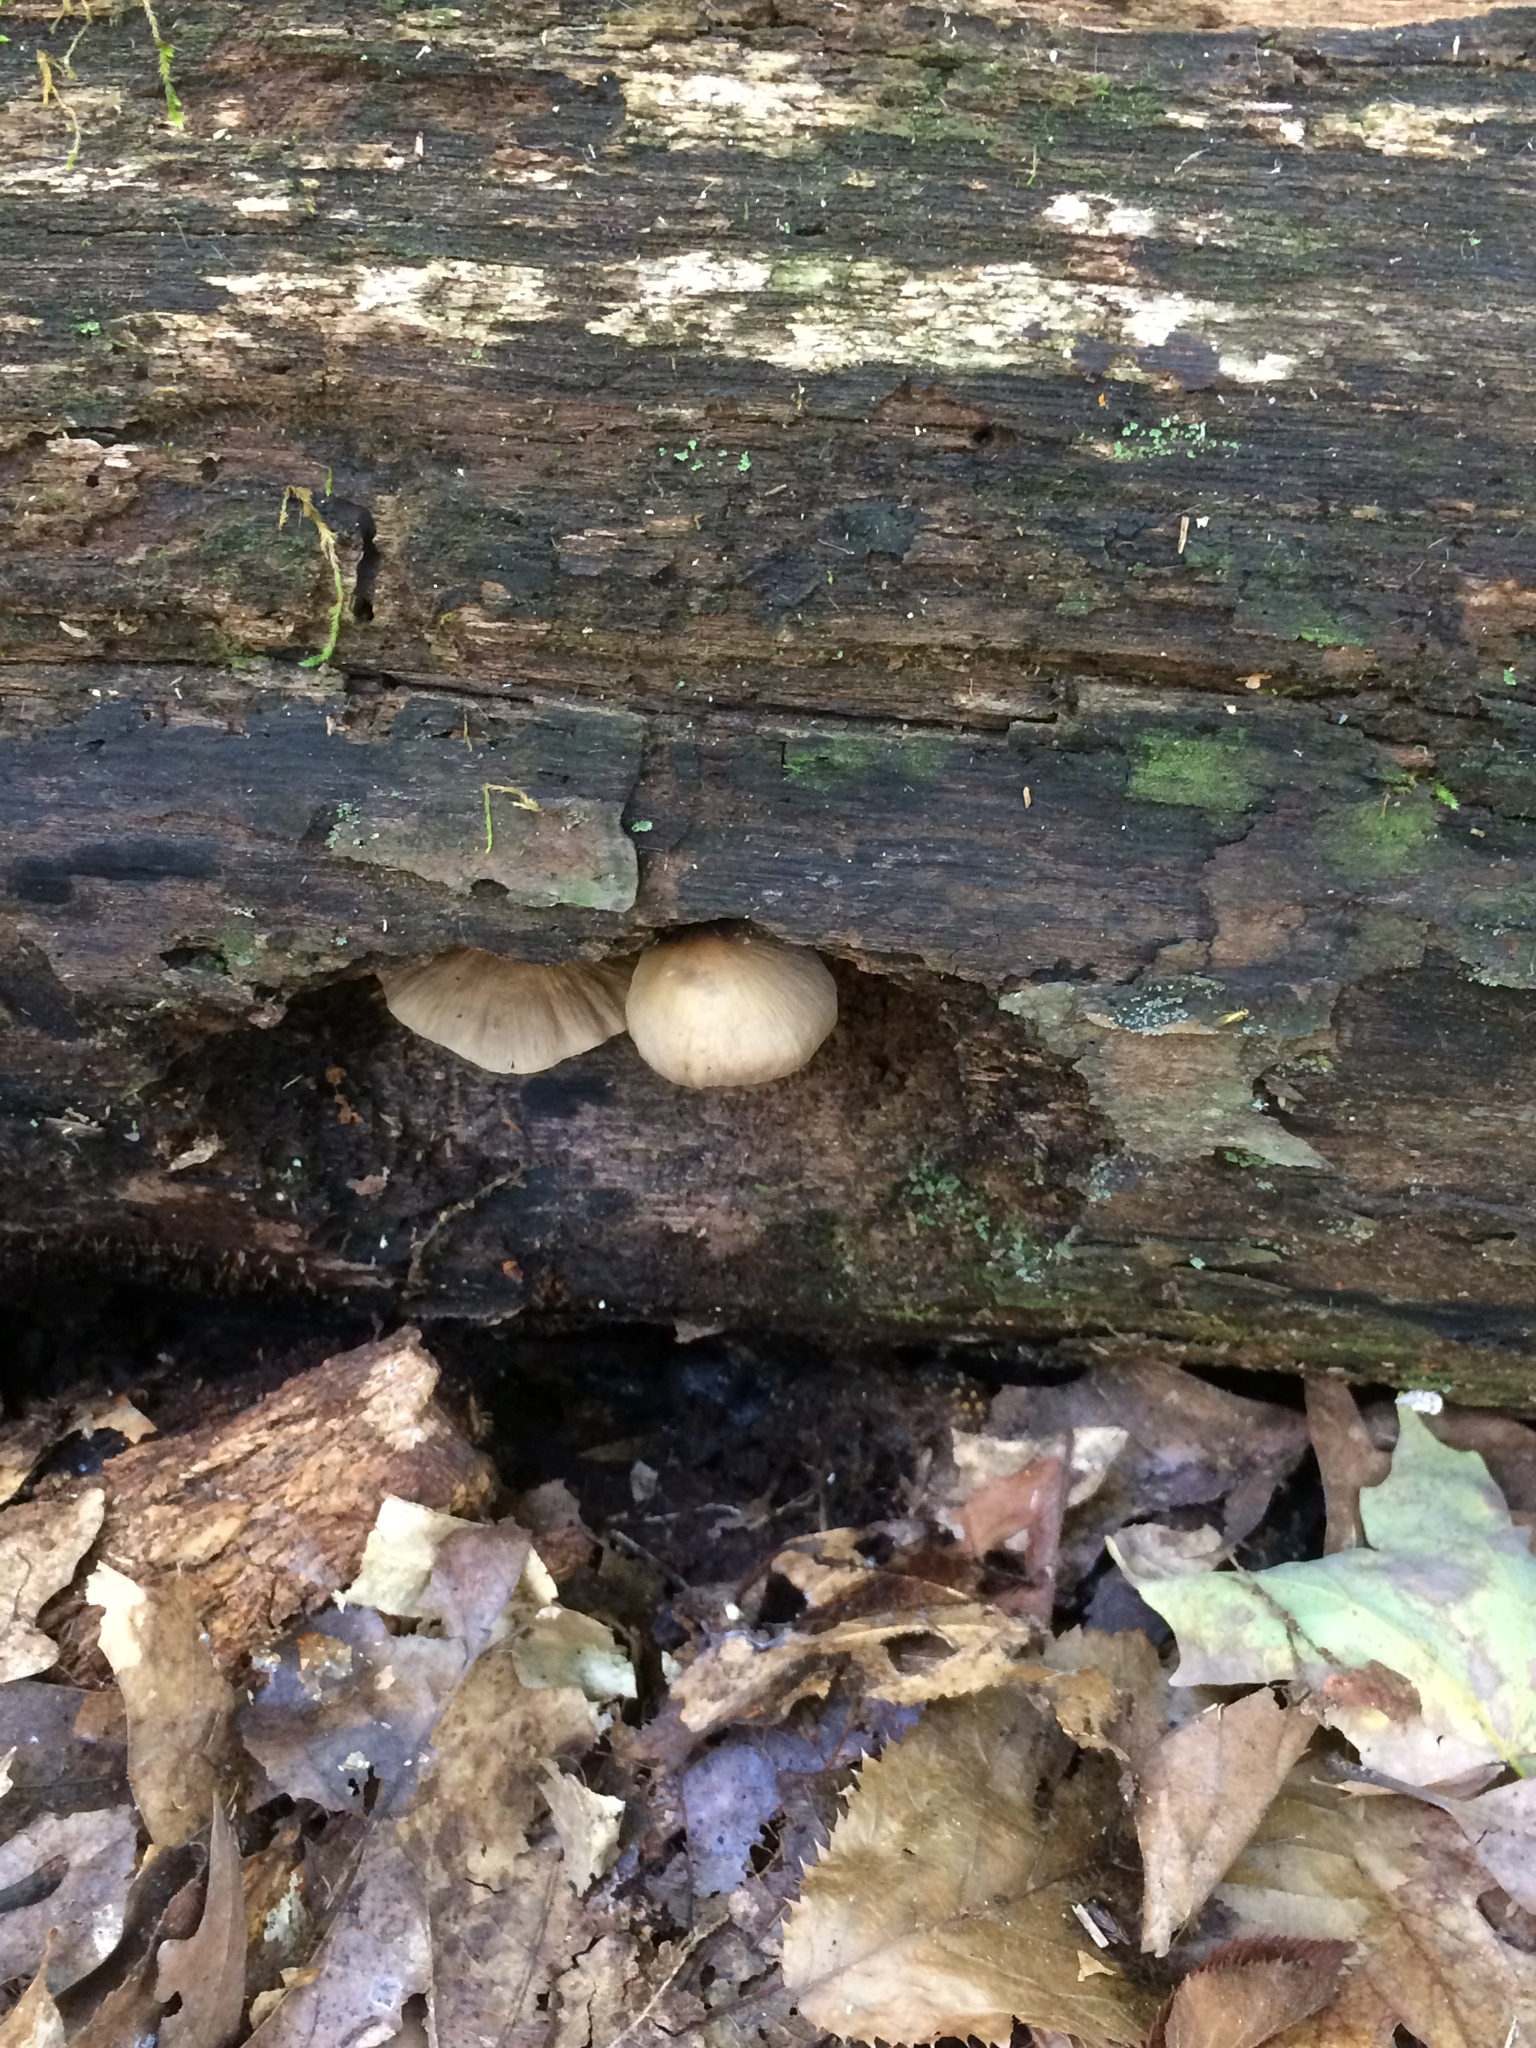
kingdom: Fungi
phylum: Basidiomycota
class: Agaricomycetes
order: Agaricales
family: Pluteaceae
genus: Pluteus
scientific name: Pluteus longistriatus
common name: Pleated pluteus
